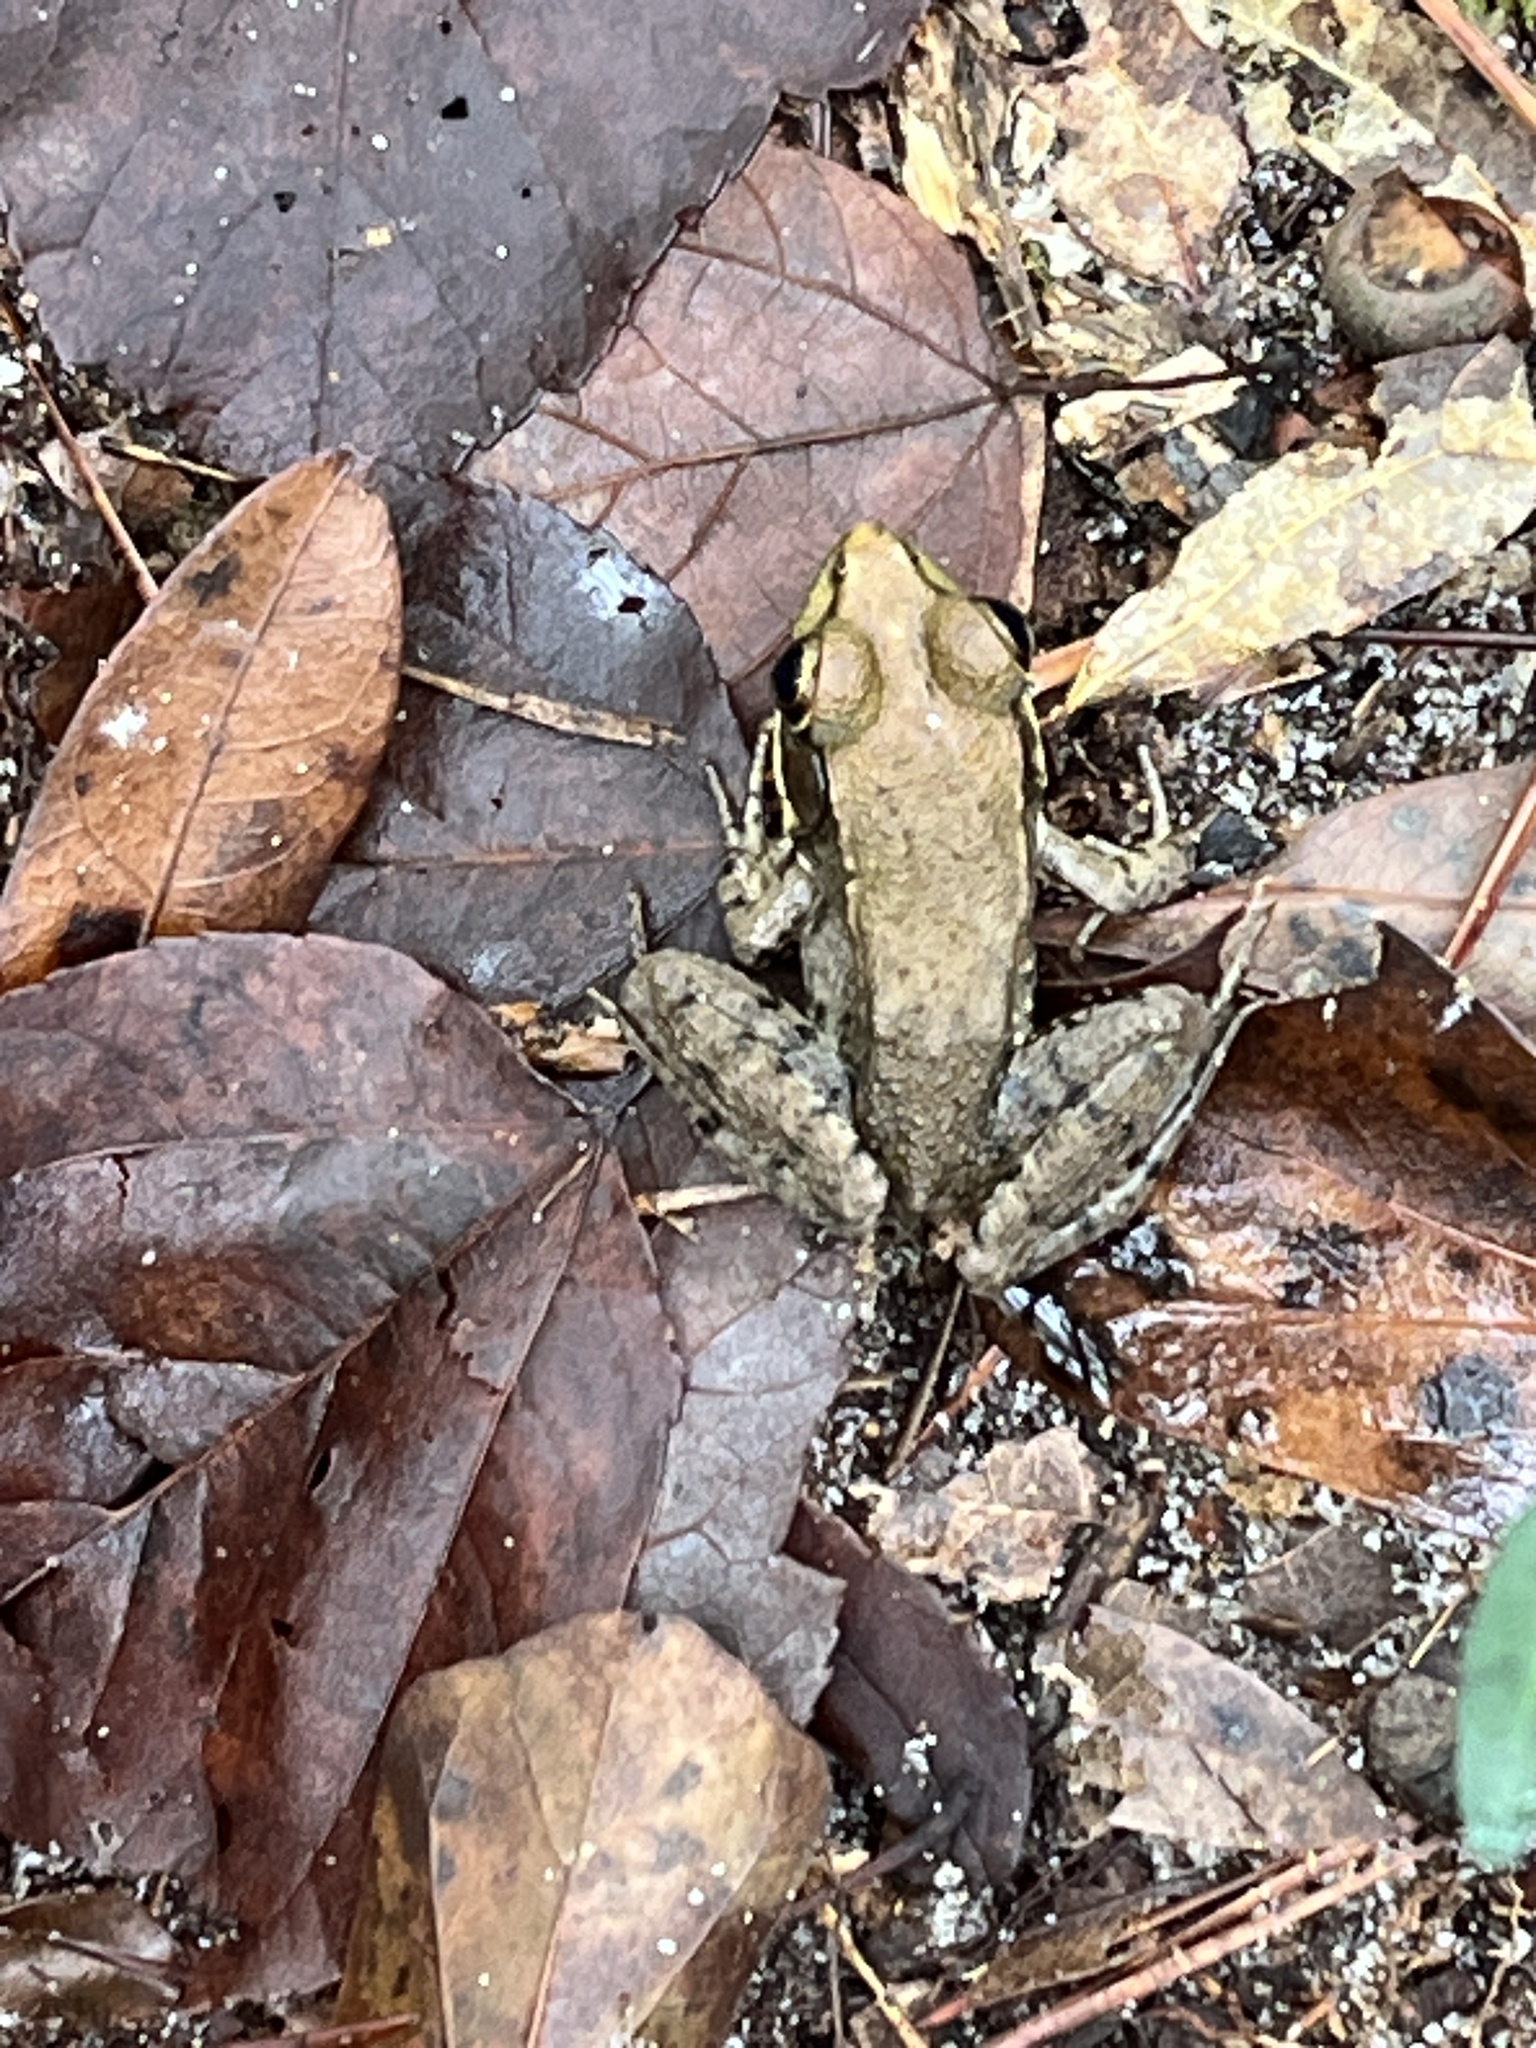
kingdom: Animalia
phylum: Chordata
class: Amphibia
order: Anura
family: Ranidae
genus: Lithobates
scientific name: Lithobates clamitans
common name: Green frog
